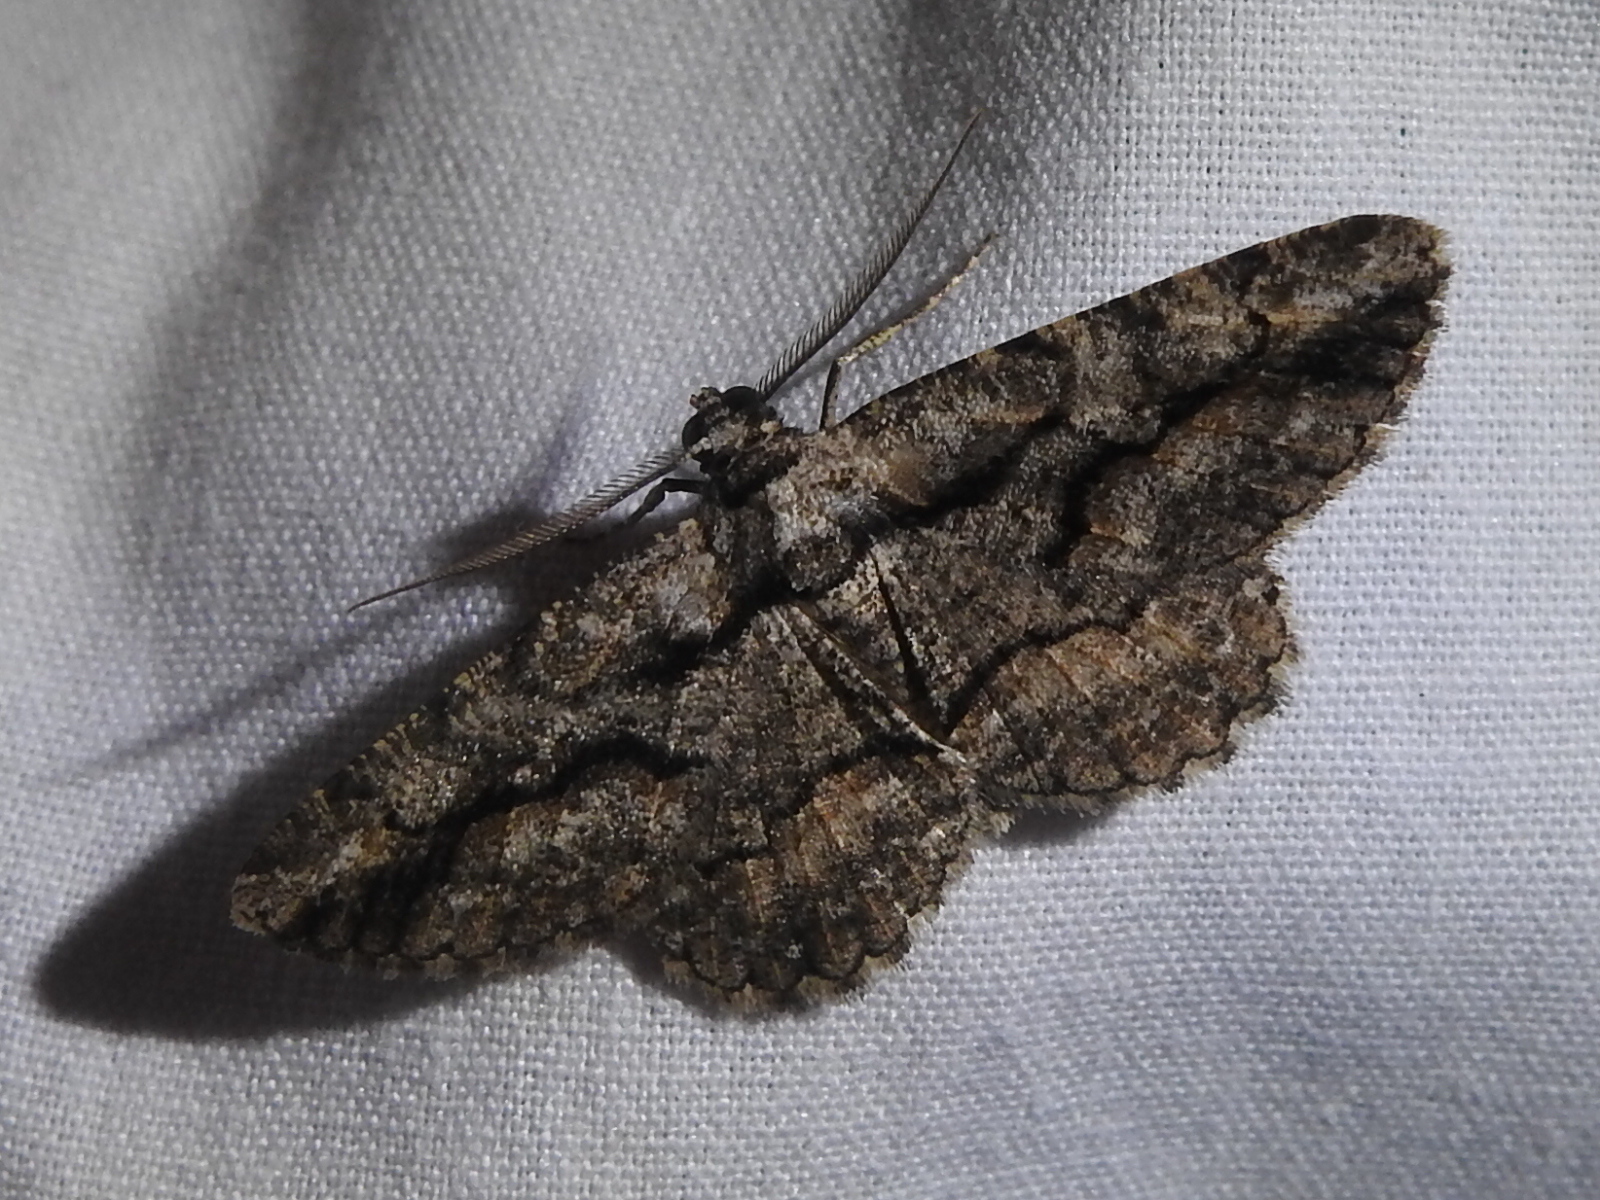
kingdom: Animalia
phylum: Arthropoda
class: Insecta
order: Lepidoptera
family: Geometridae
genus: Anavitrinella
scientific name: Anavitrinella atristrigaria
